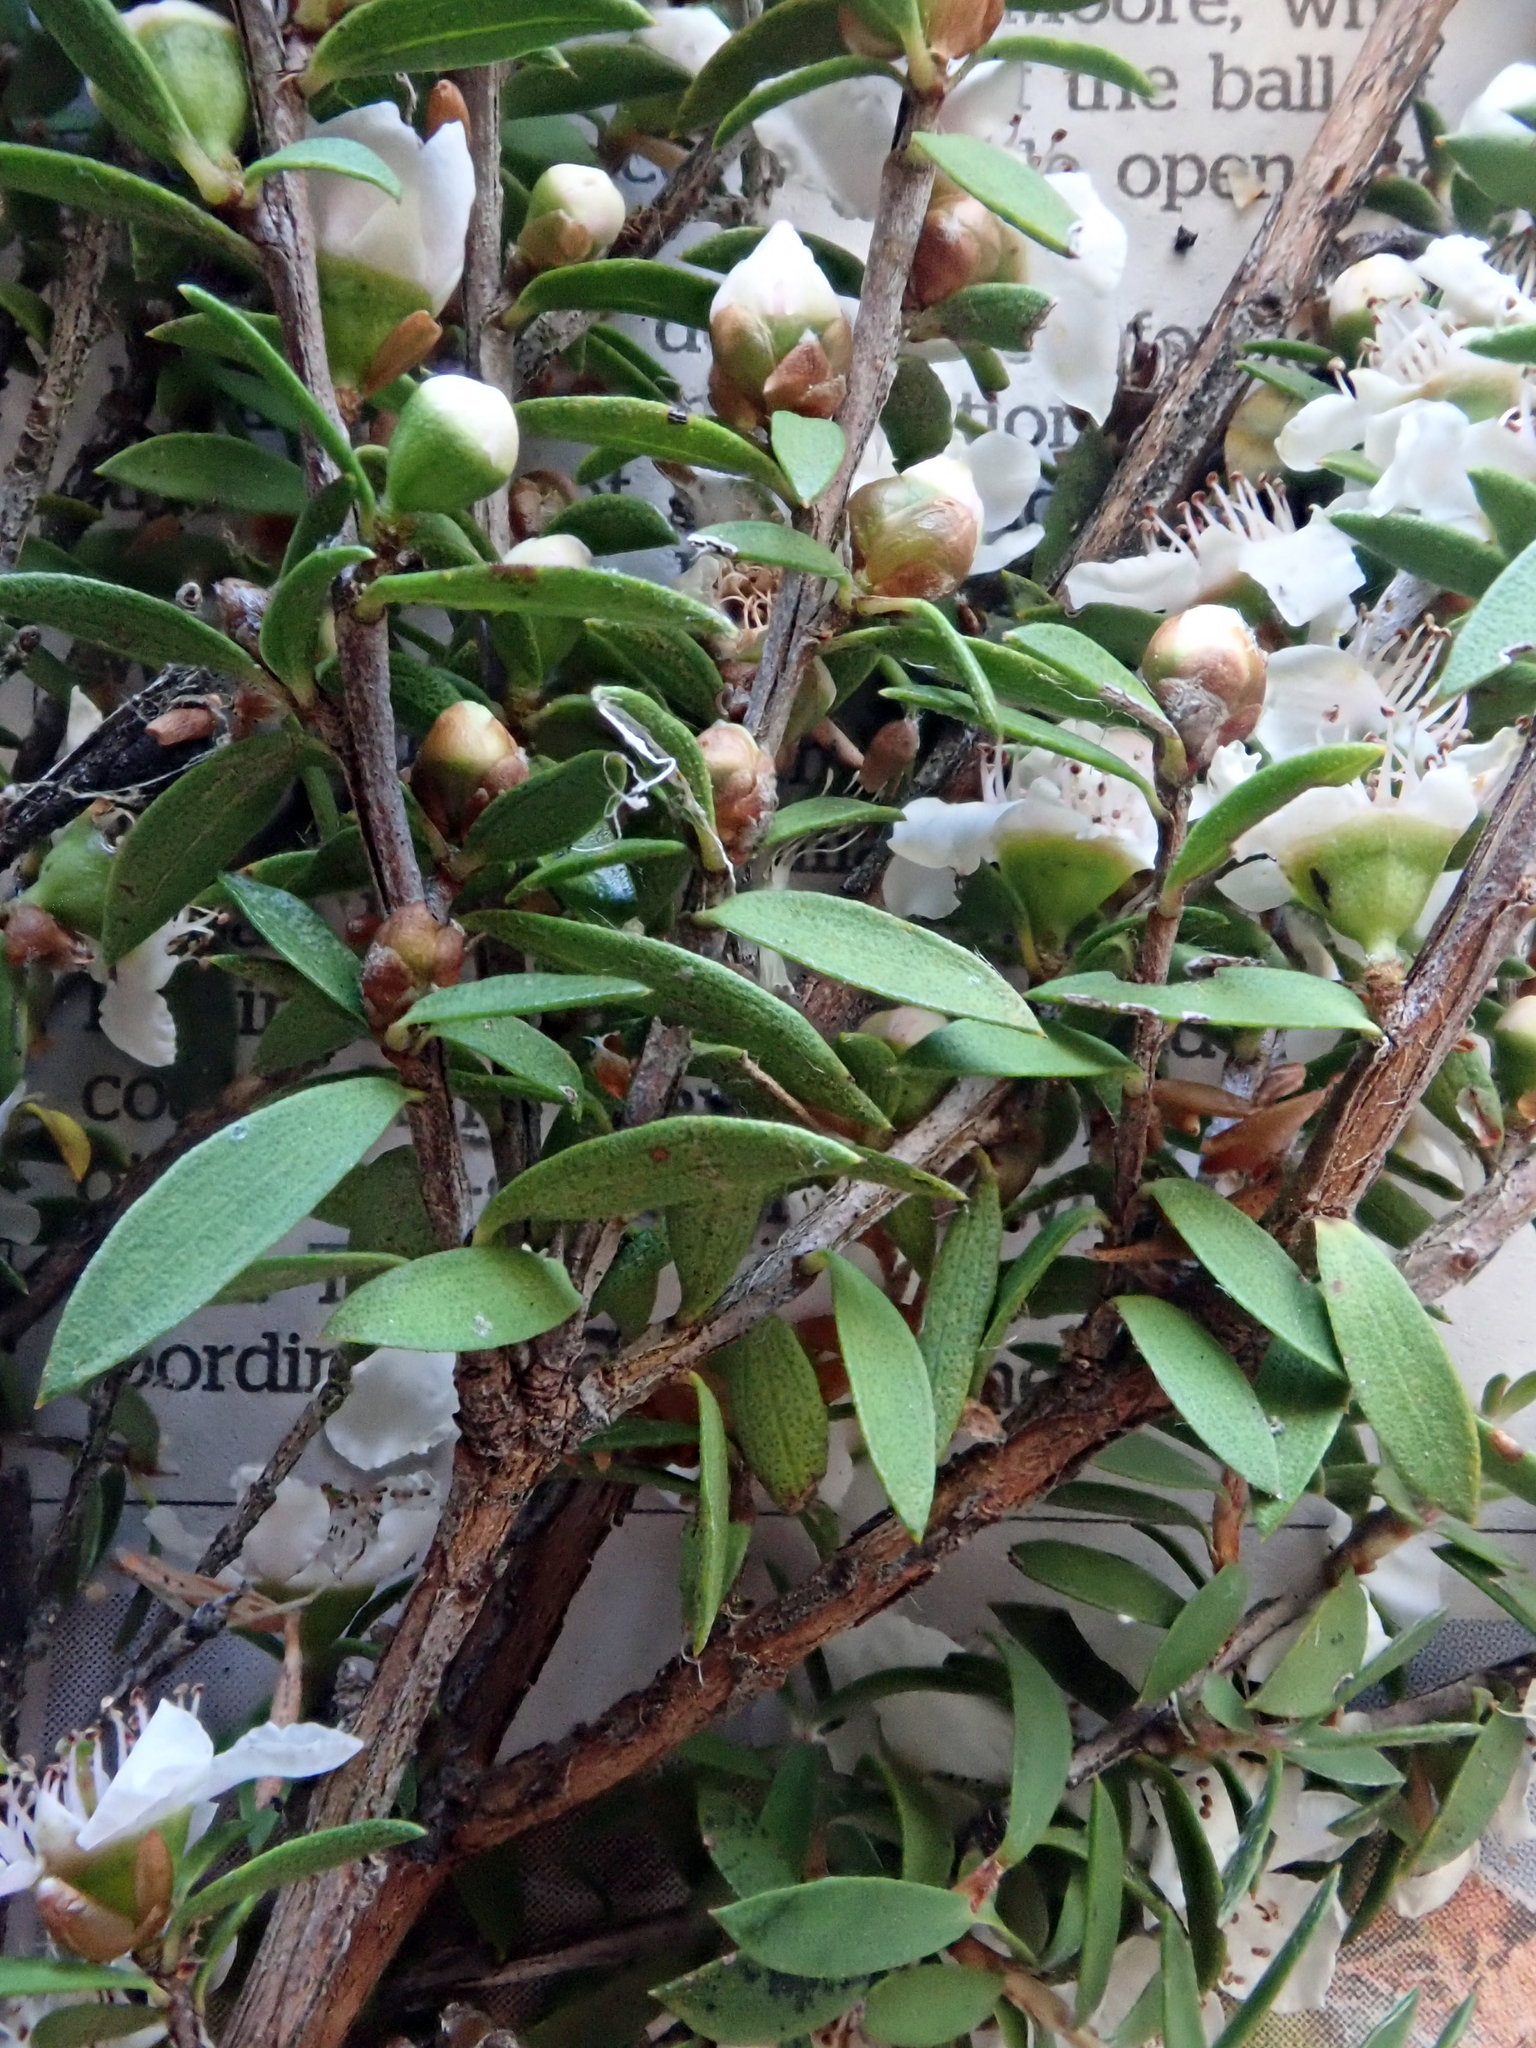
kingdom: Plantae
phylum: Tracheophyta
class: Magnoliopsida
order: Myrtales
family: Myrtaceae
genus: Leptospermum
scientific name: Leptospermum scoparium
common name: Broom tea-tree
